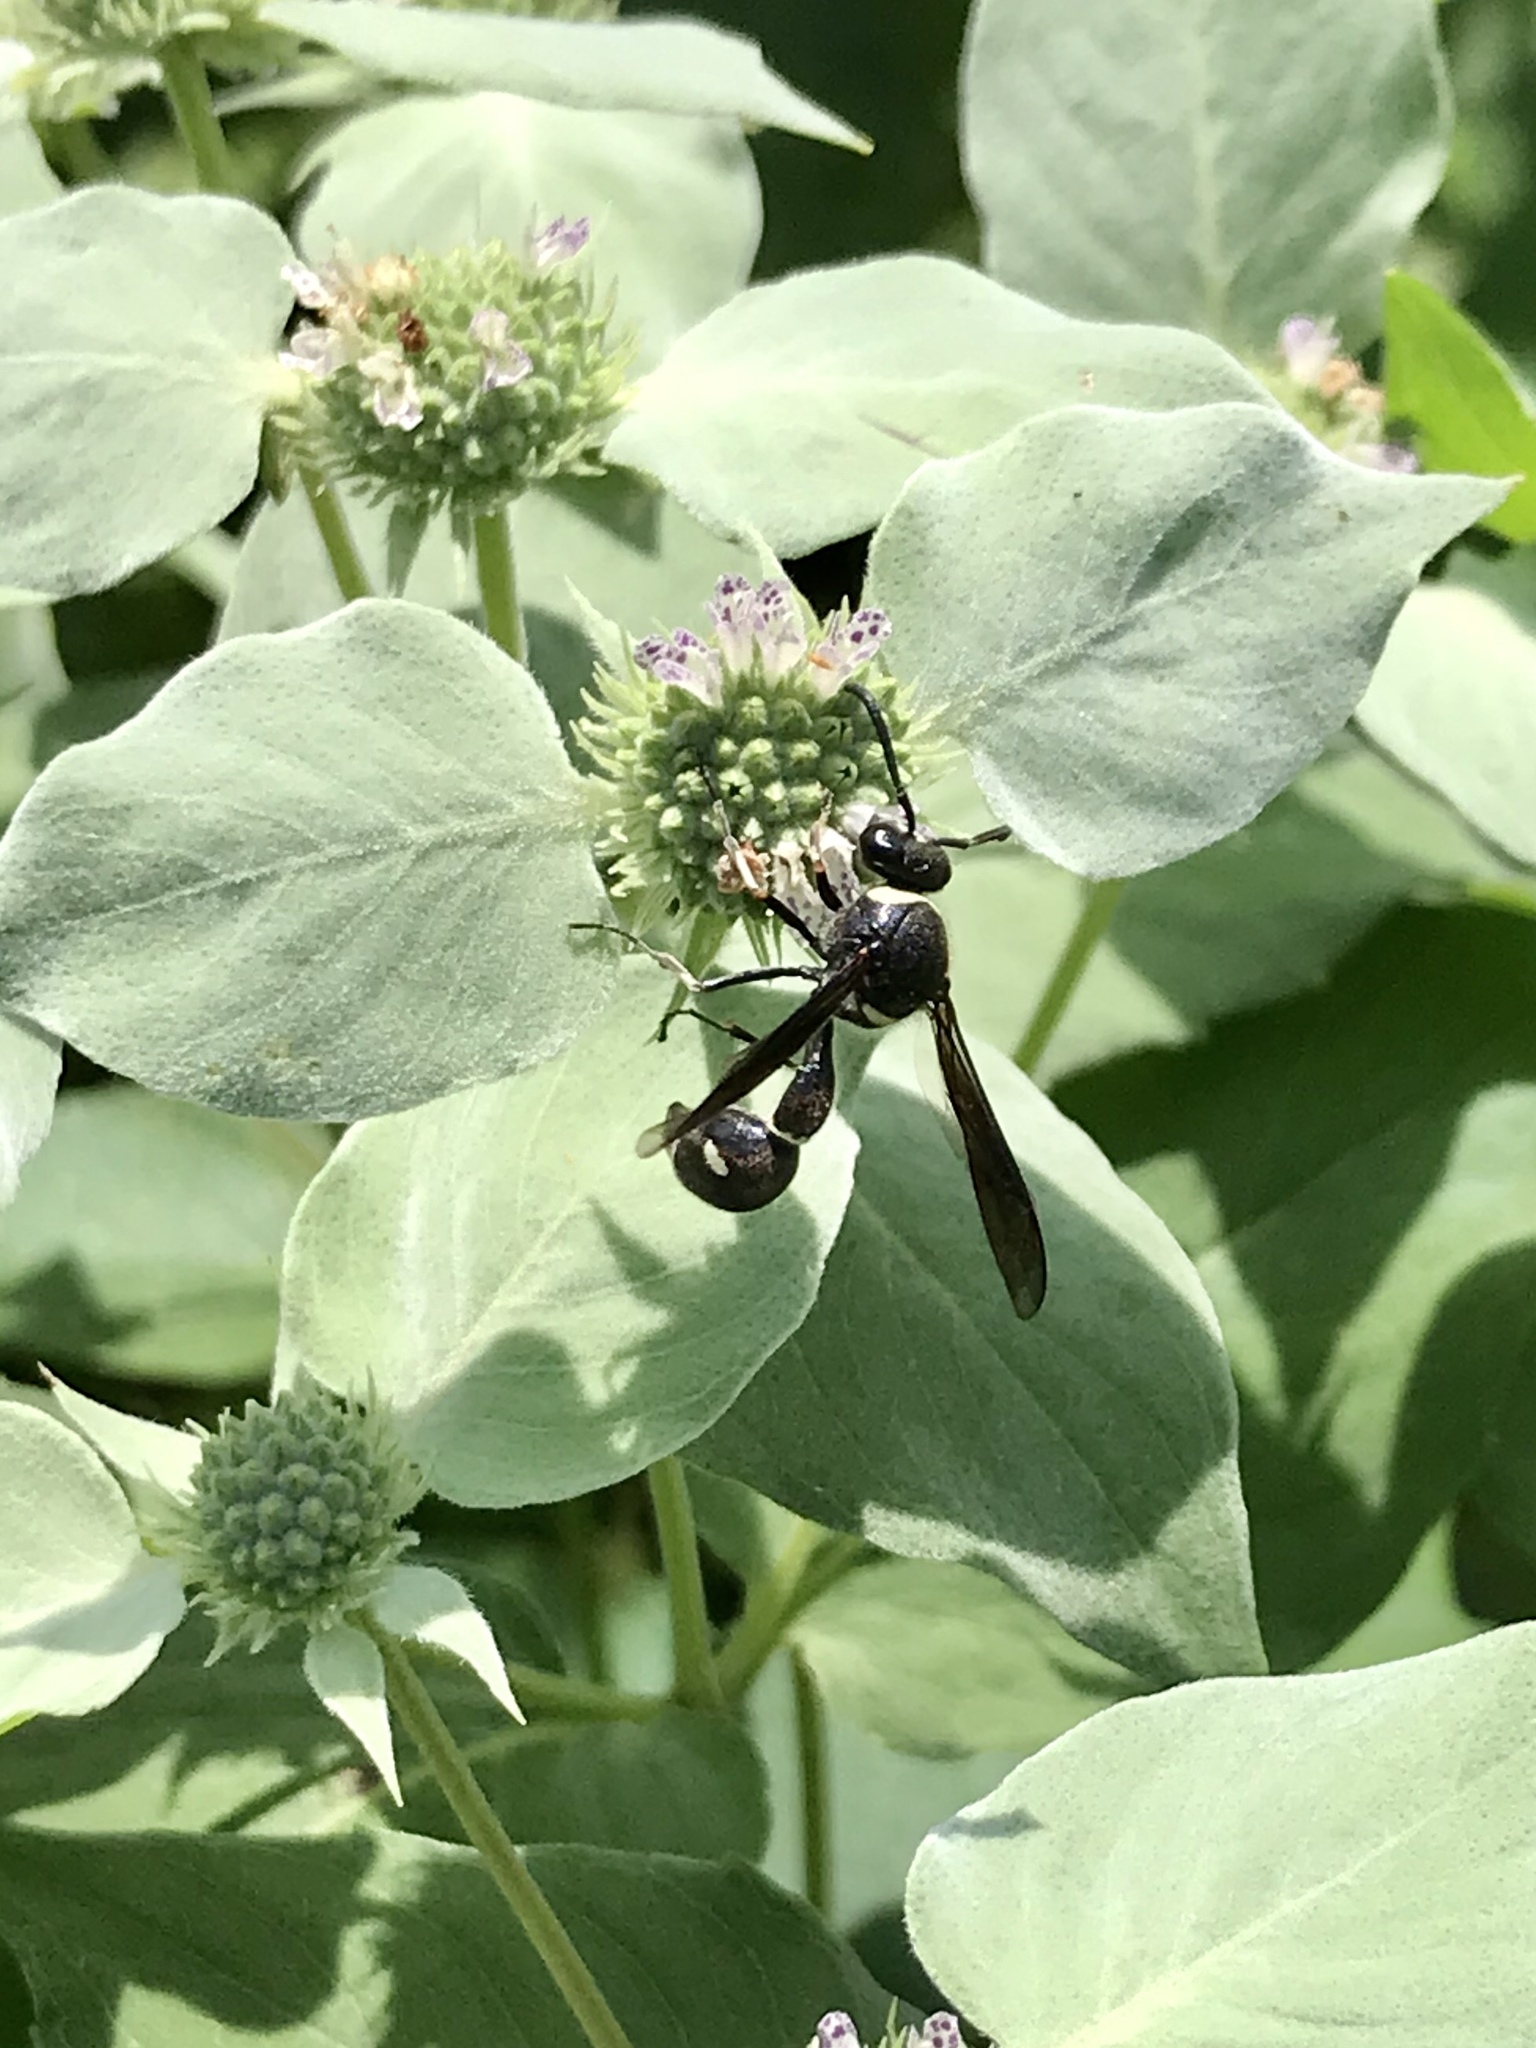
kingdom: Animalia
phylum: Arthropoda
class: Insecta
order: Hymenoptera
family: Vespidae
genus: Eumenes
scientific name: Eumenes fraternus
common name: Fraternal potter wasp
